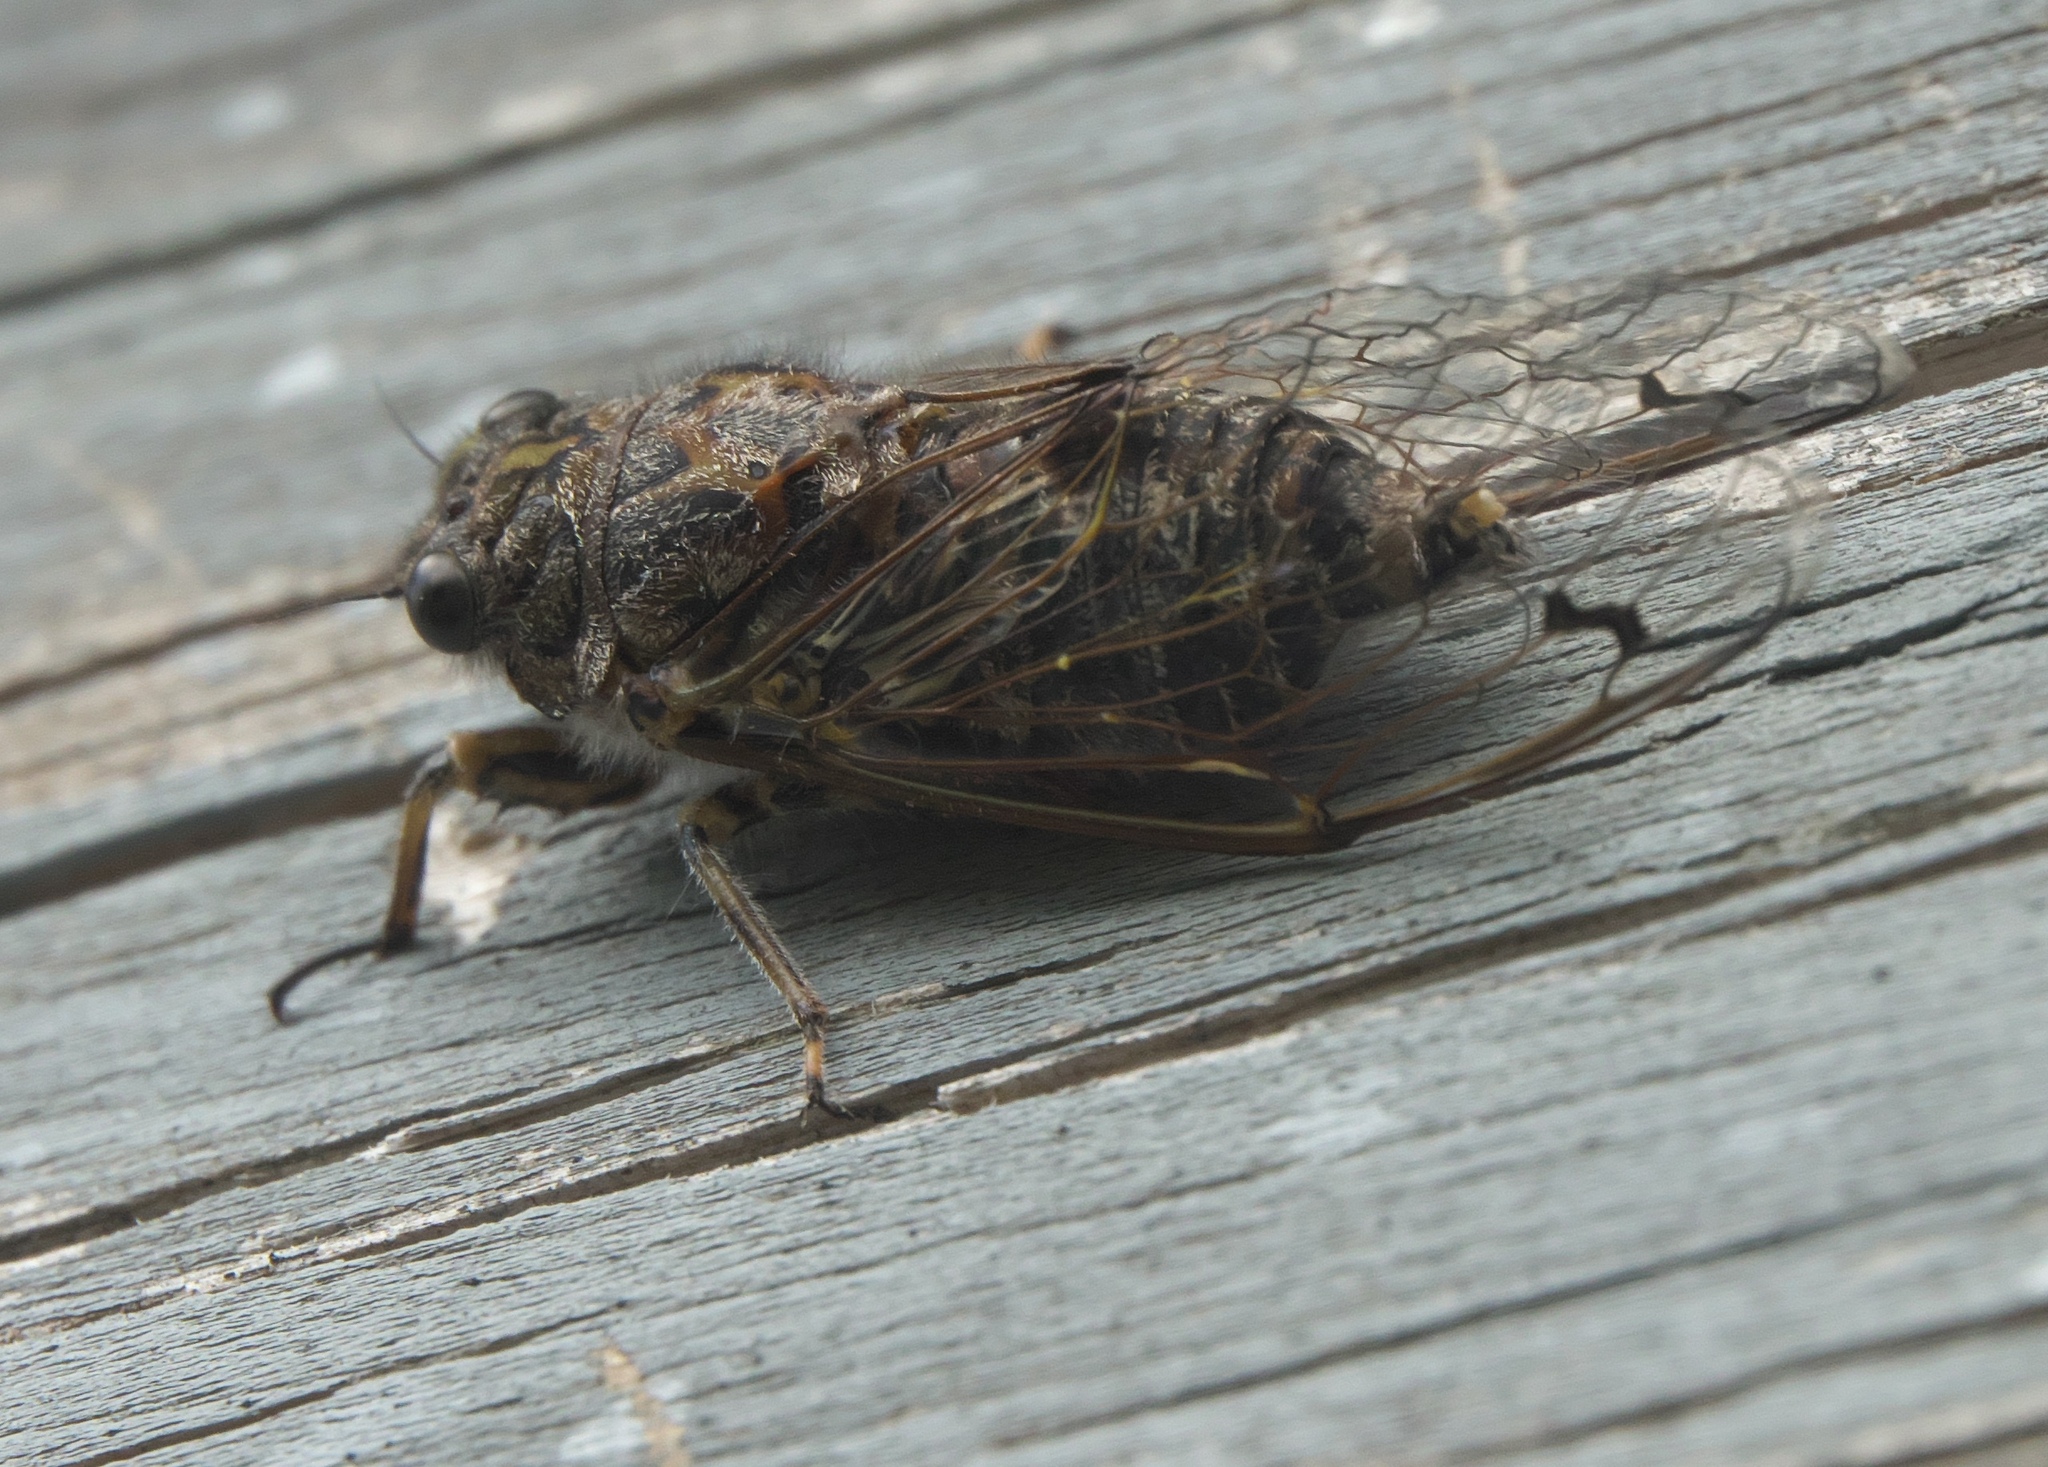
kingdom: Animalia
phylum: Arthropoda
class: Insecta
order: Hemiptera
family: Cicadidae
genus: Amphipsalta
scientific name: Amphipsalta strepitans
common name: Chirping cicada
